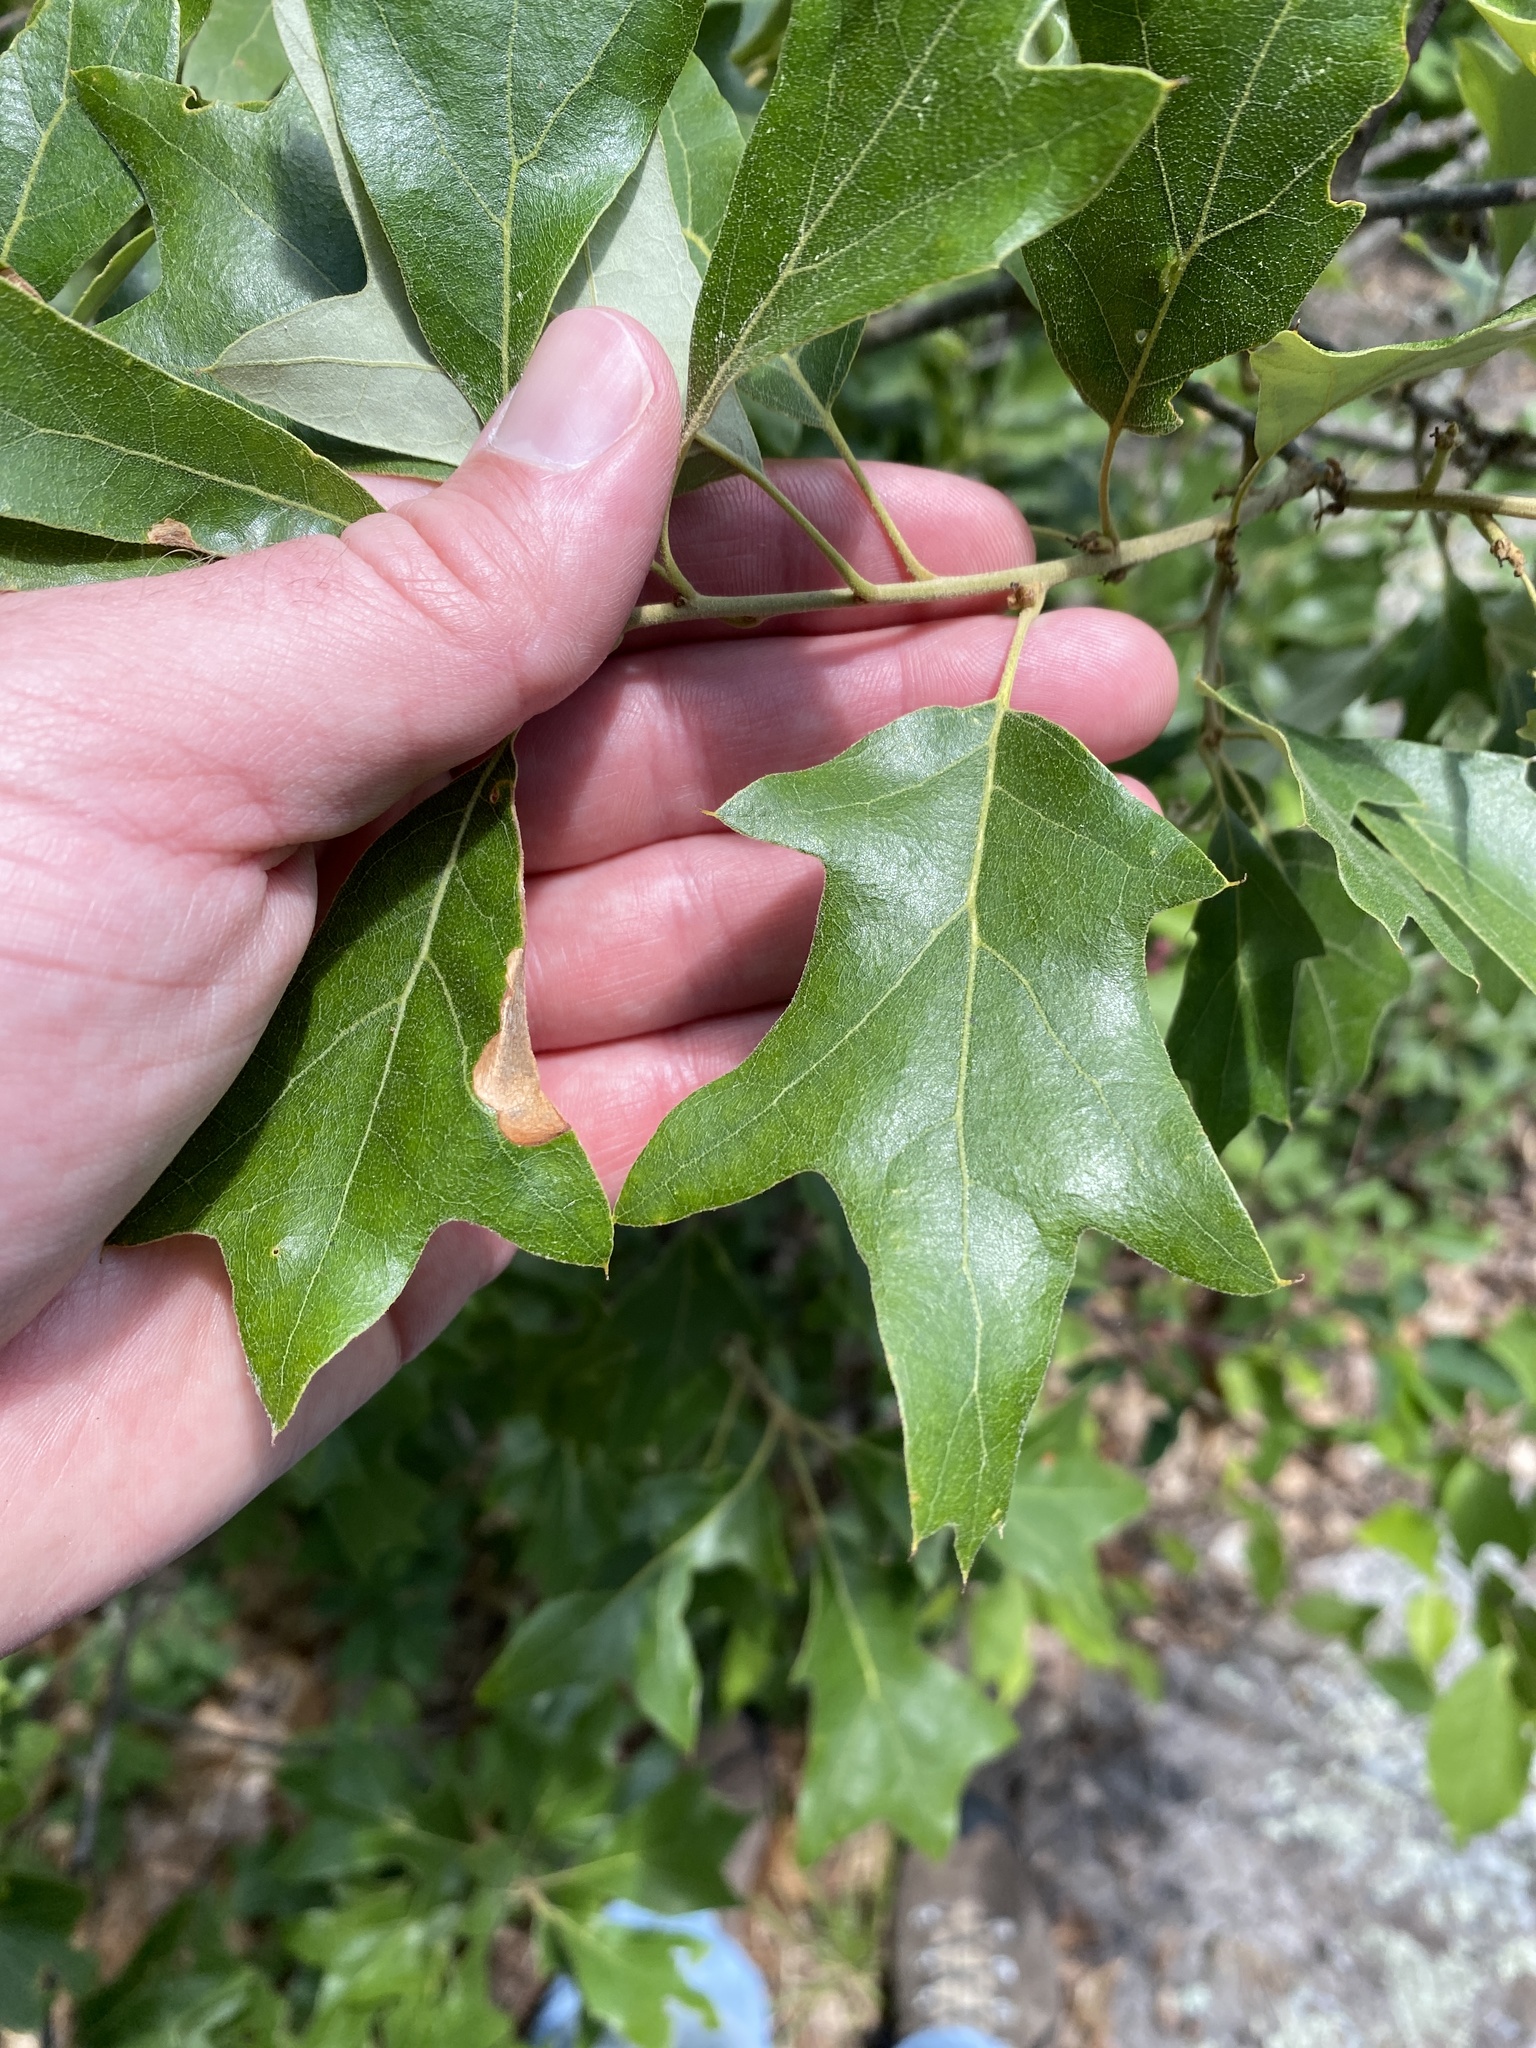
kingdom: Plantae
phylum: Tracheophyta
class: Magnoliopsida
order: Fagales
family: Fagaceae
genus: Quercus
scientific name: Quercus ilicifolia
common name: Bear oak
